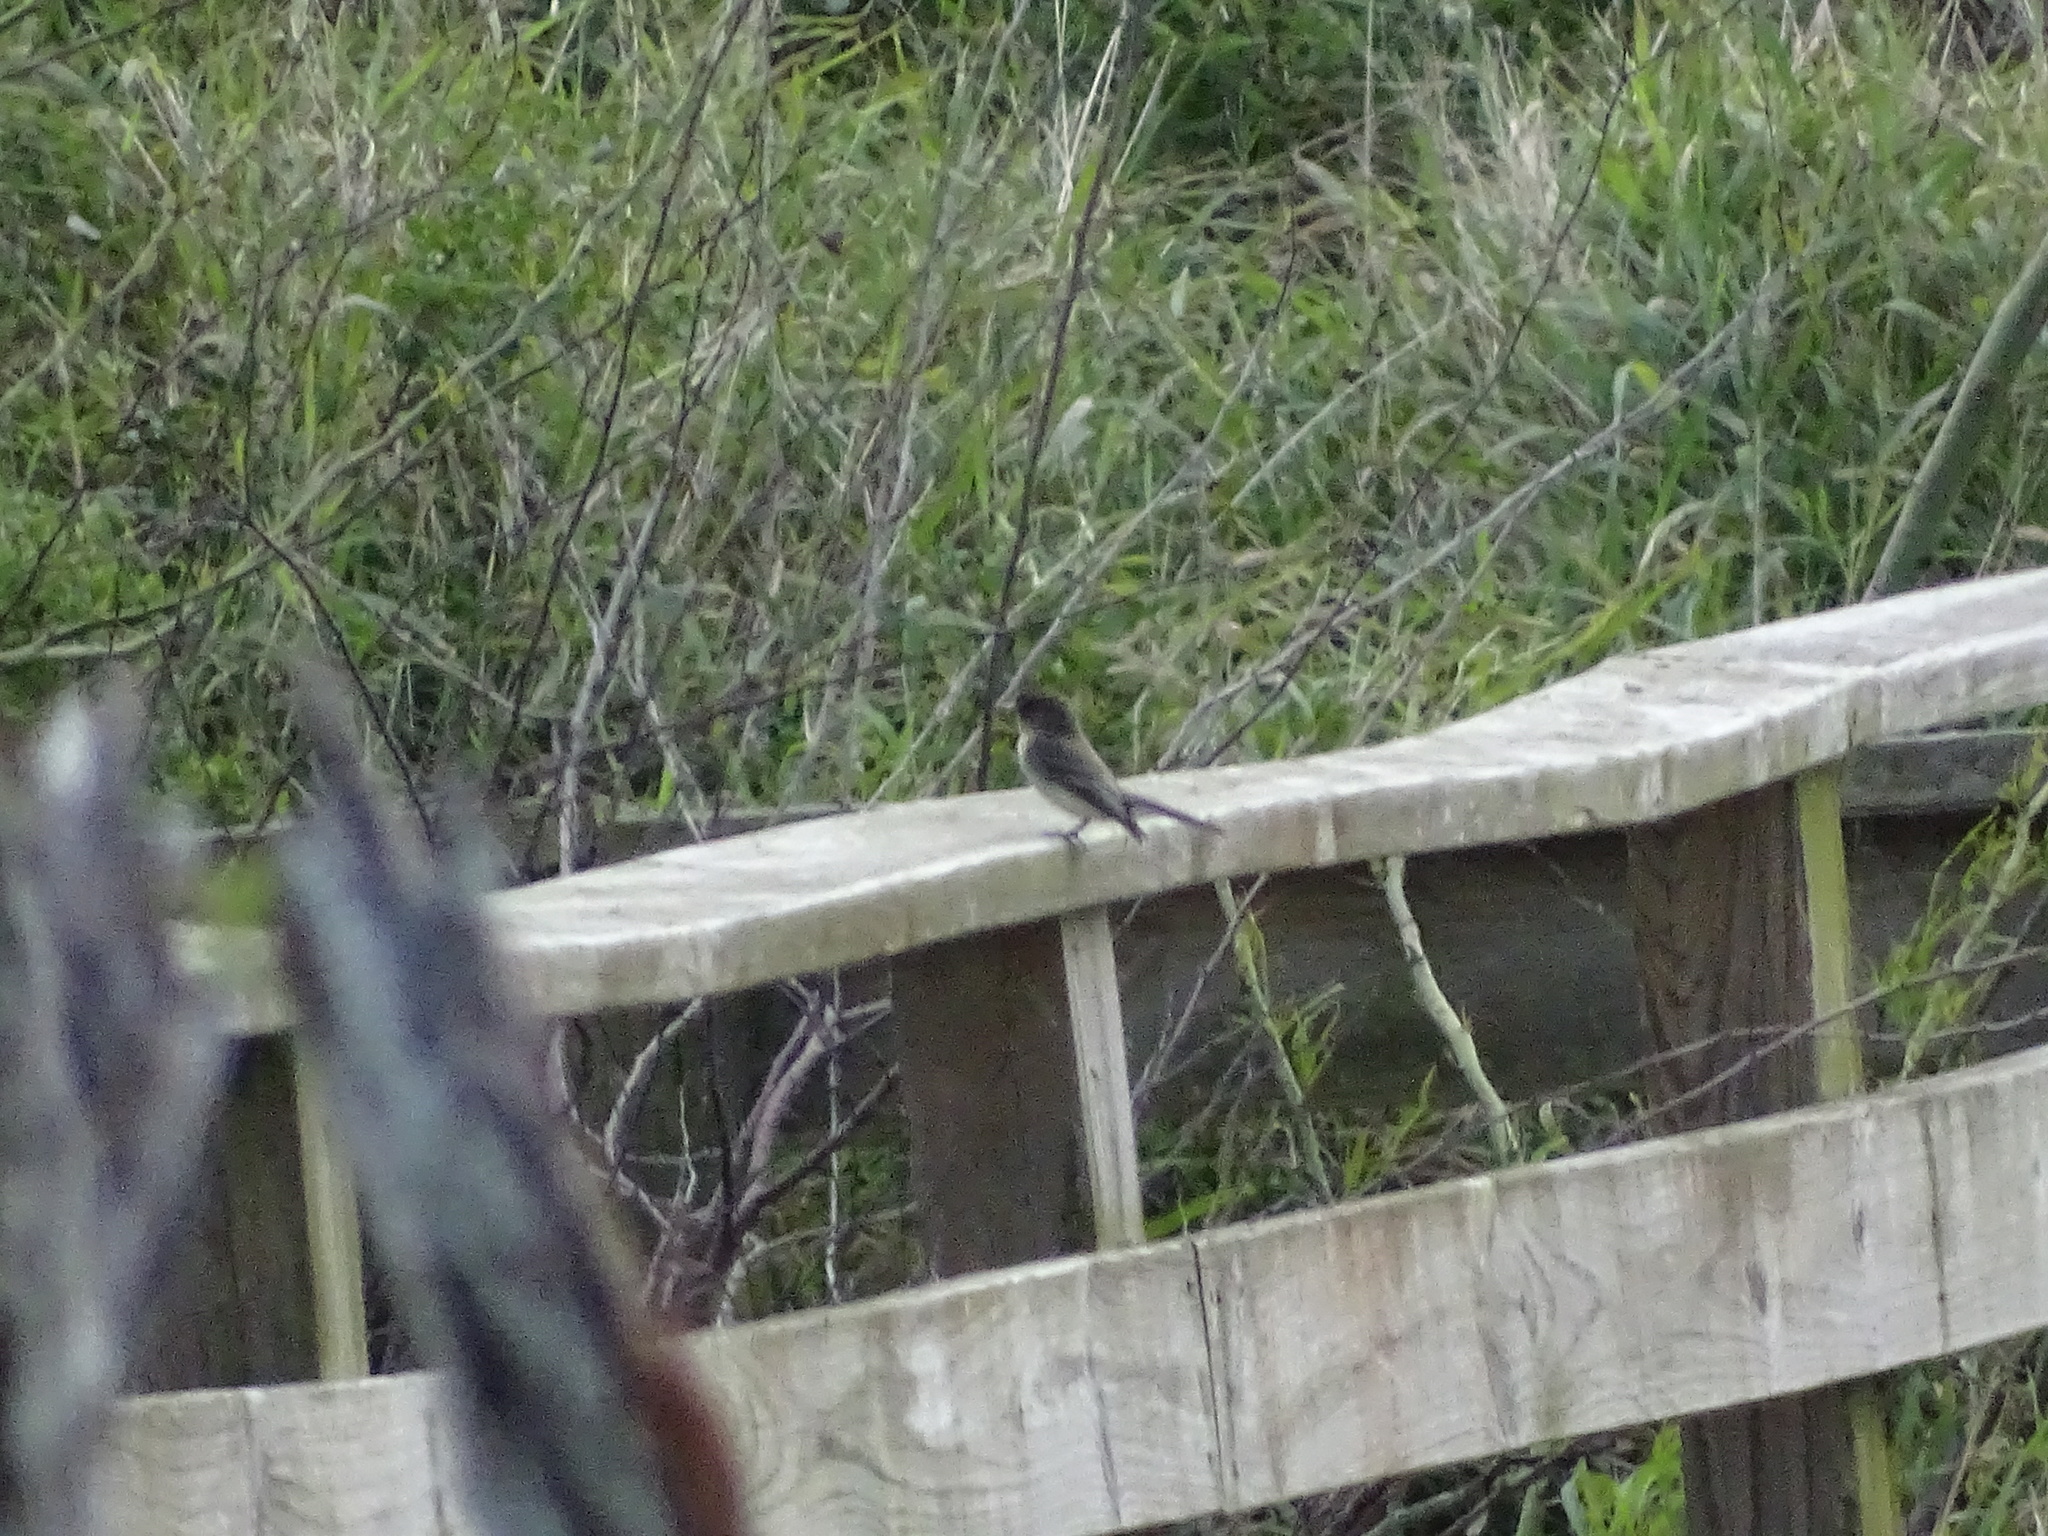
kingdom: Animalia
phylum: Chordata
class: Aves
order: Passeriformes
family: Tyrannidae
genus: Sayornis
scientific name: Sayornis phoebe
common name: Eastern phoebe
